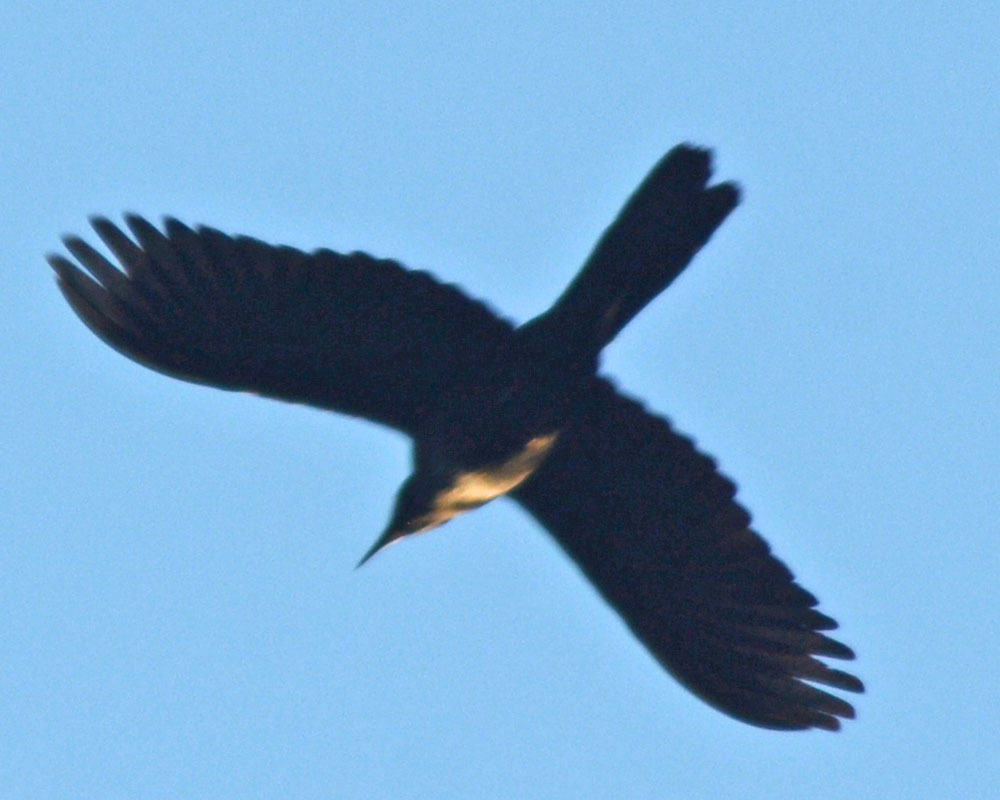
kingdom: Animalia
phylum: Chordata
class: Aves
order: Passeriformes
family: Icteridae
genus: Quiscalus
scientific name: Quiscalus mexicanus
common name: Great-tailed grackle
